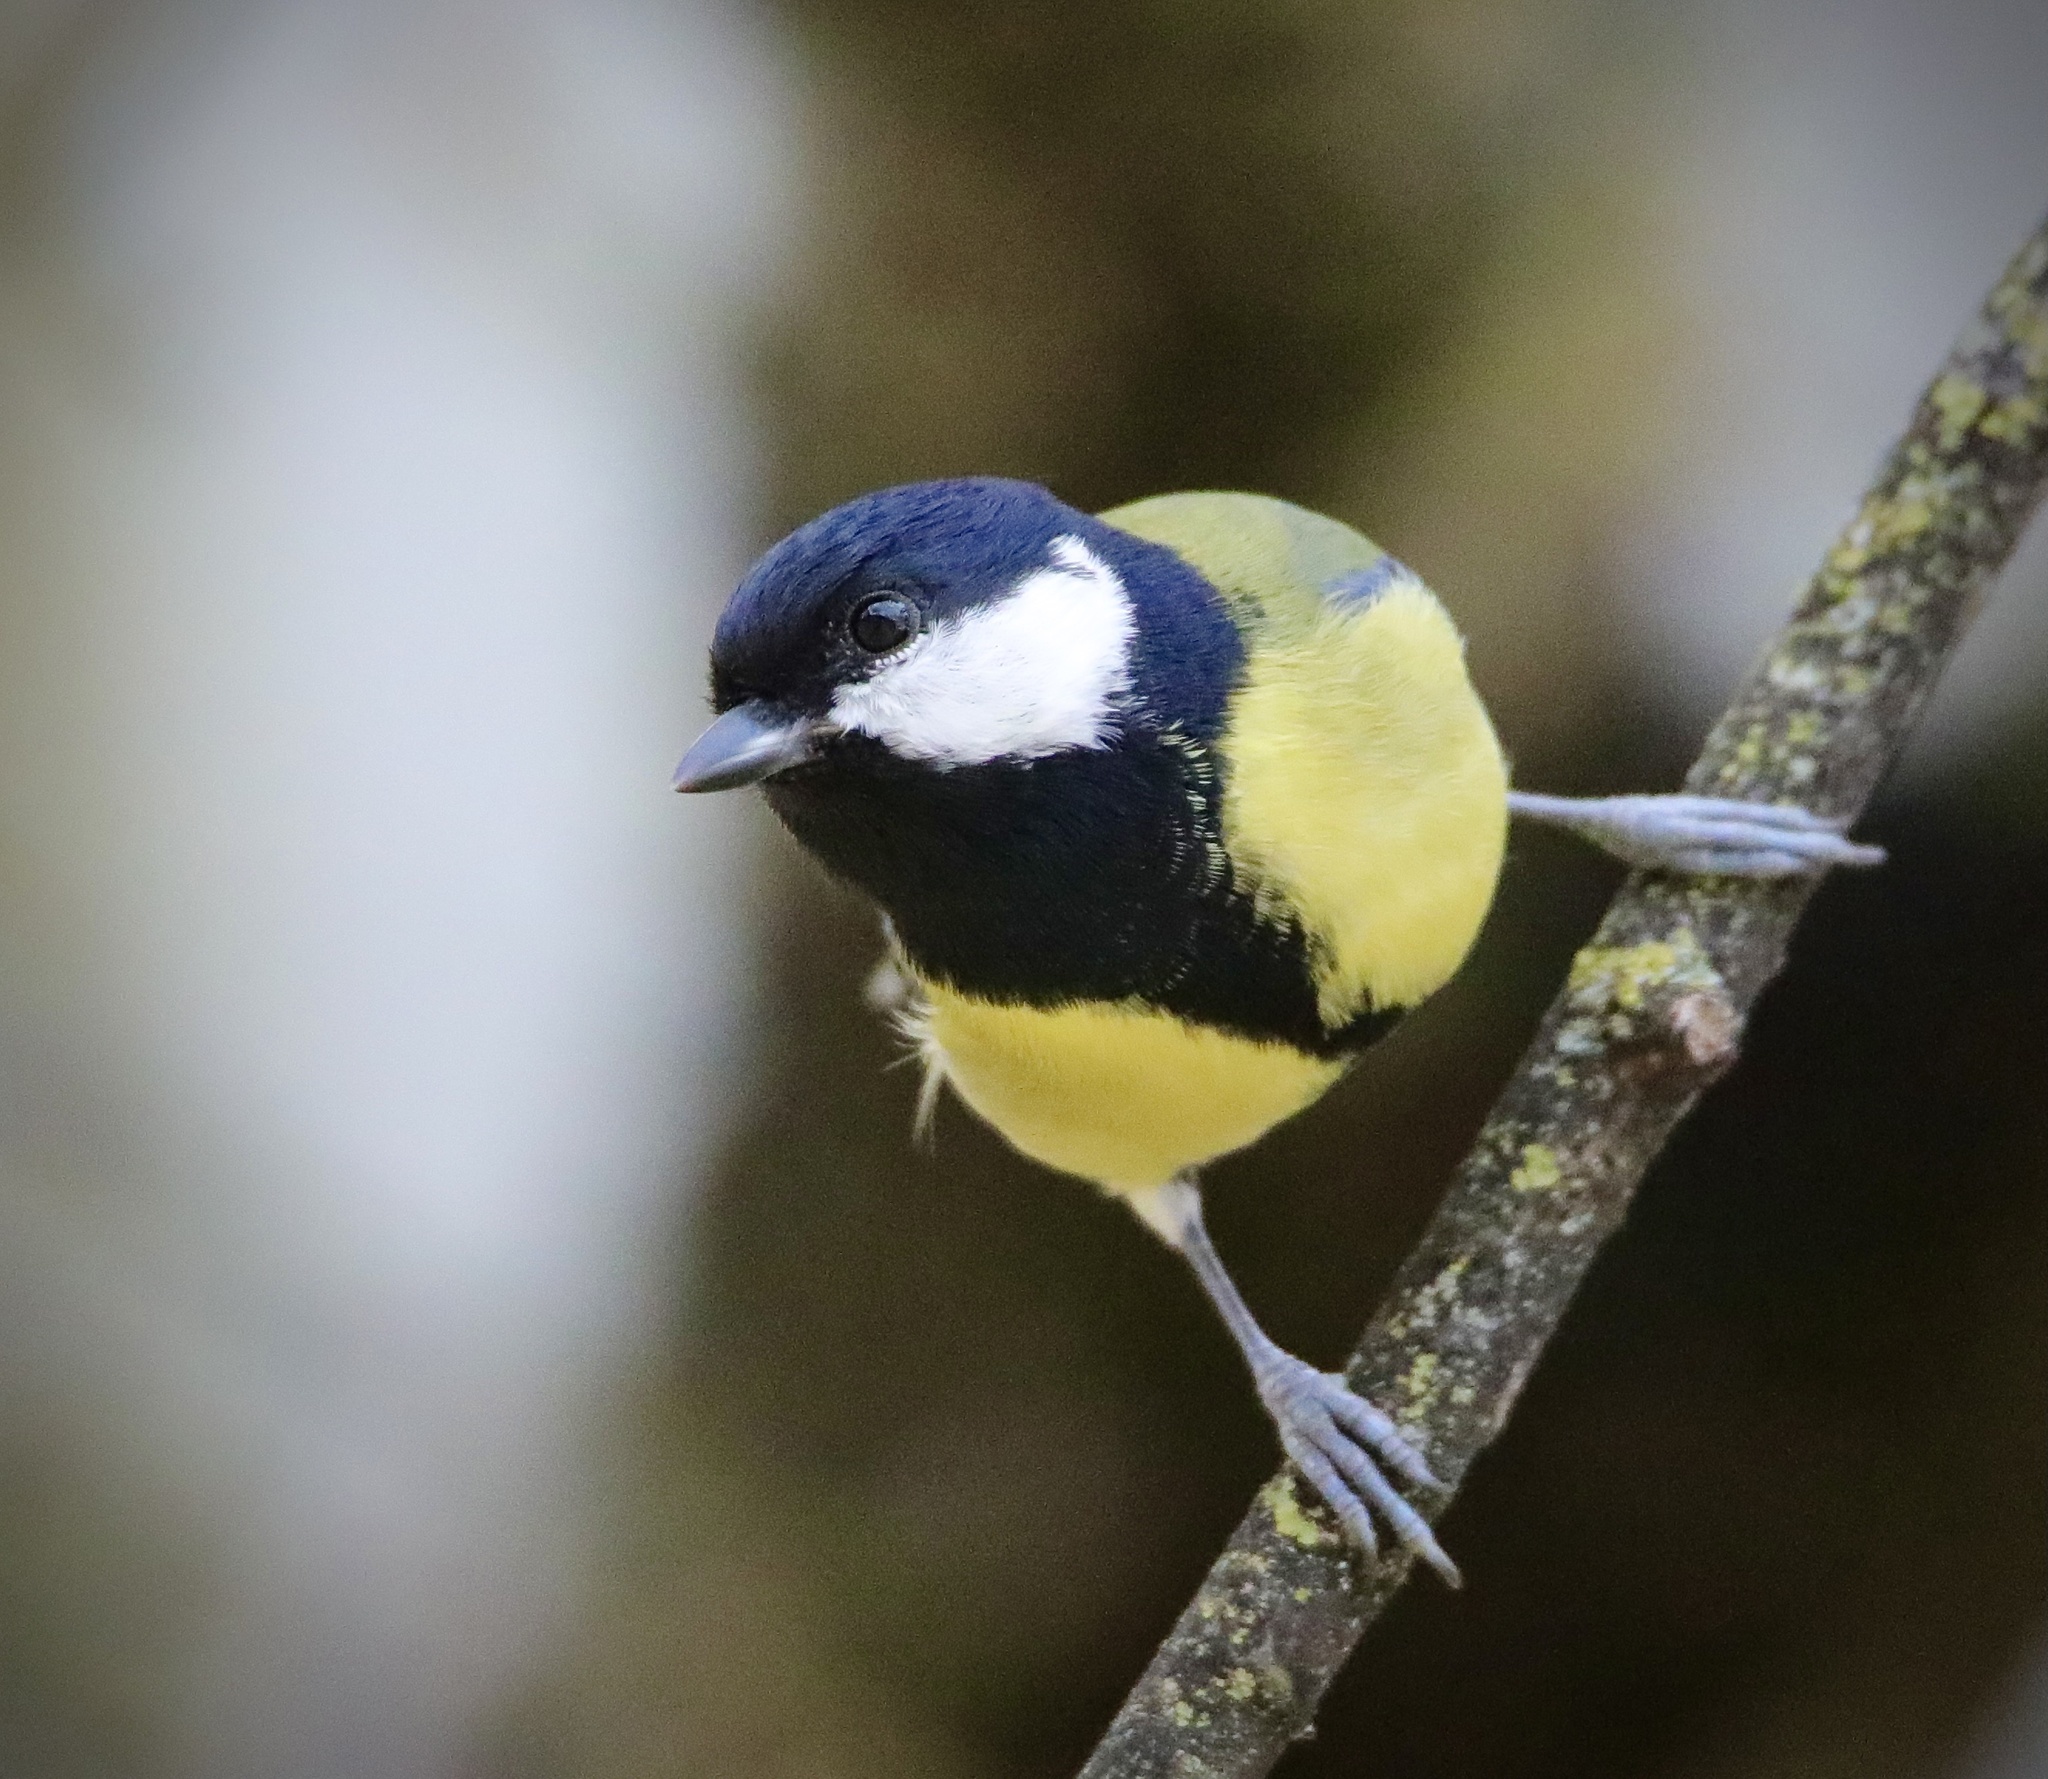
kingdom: Animalia
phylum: Chordata
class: Aves
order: Passeriformes
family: Paridae
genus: Parus
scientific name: Parus major
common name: Great tit
